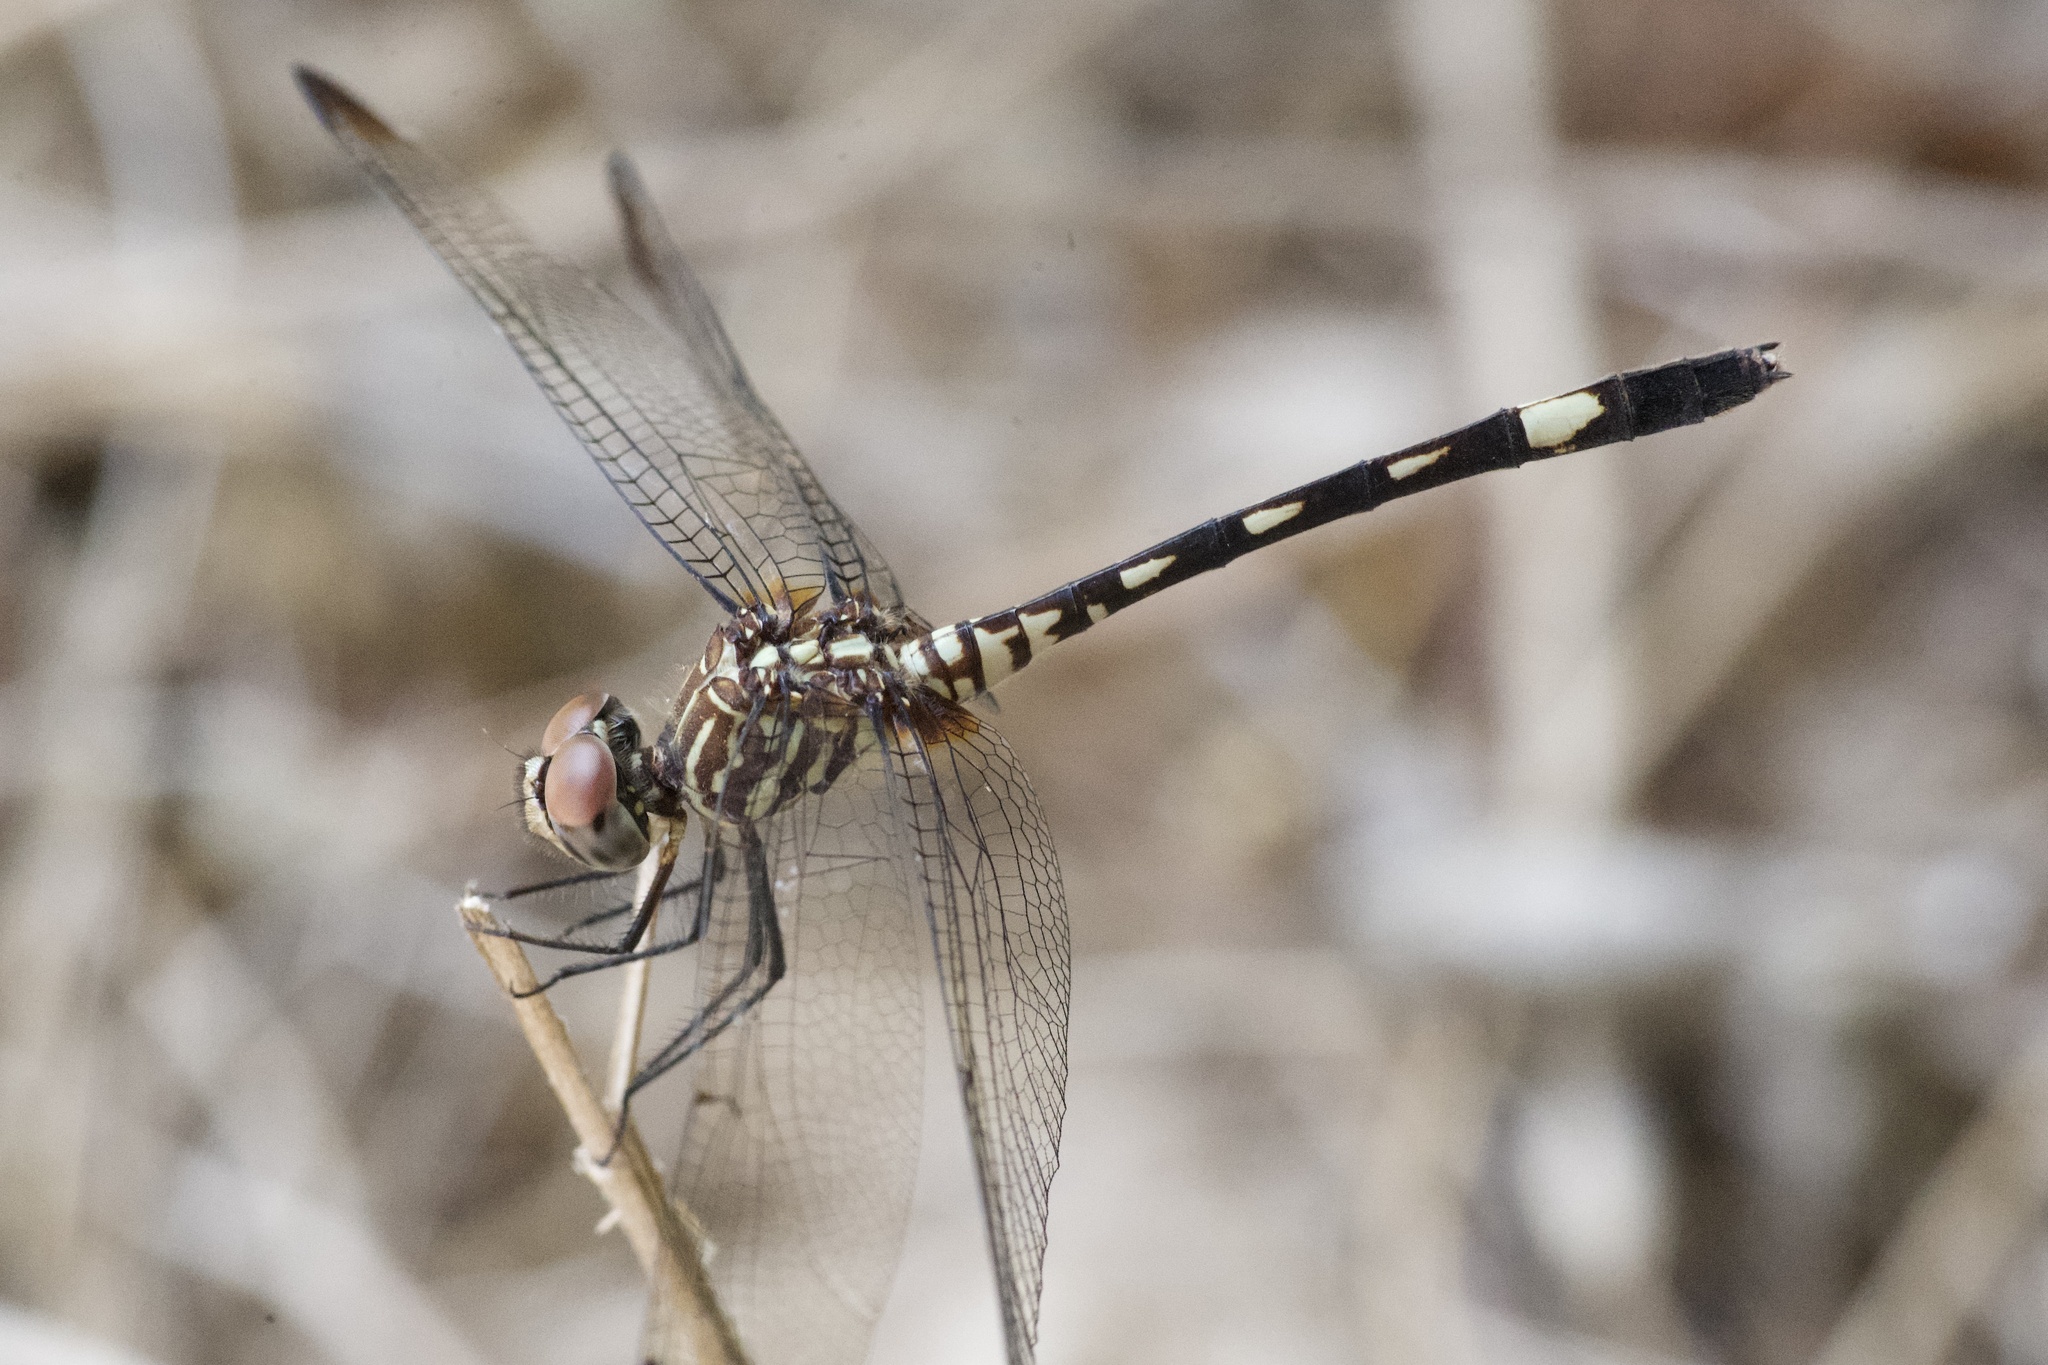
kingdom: Animalia
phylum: Arthropoda
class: Insecta
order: Odonata
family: Libellulidae
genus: Dythemis
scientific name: Dythemis velox
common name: Swift setwing
